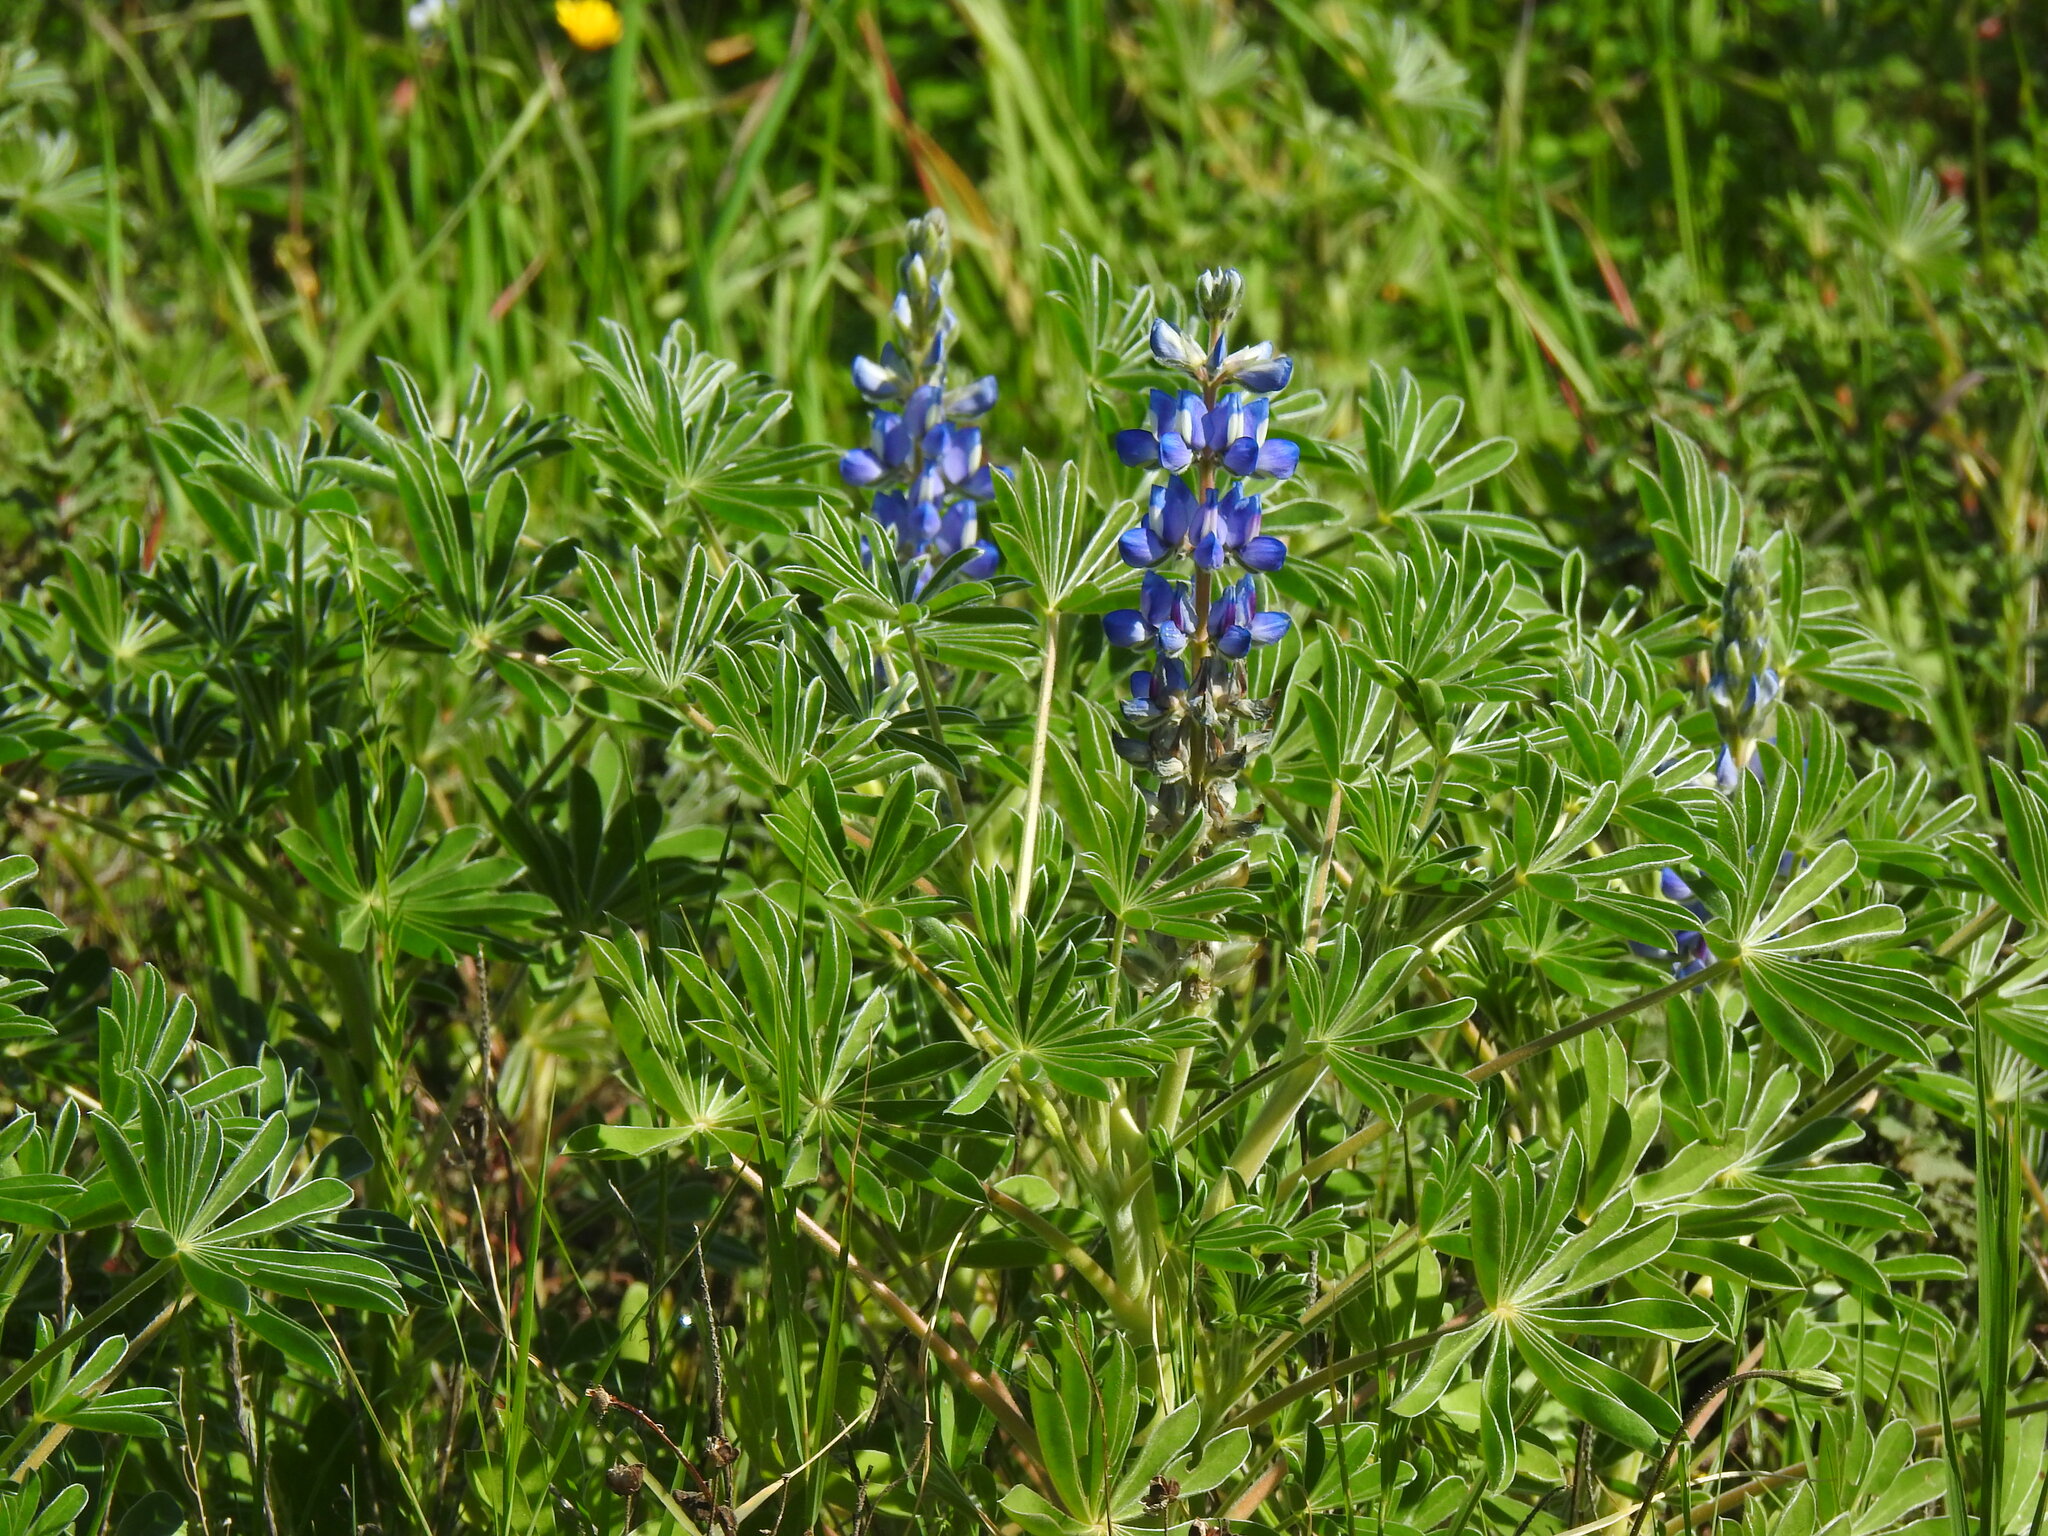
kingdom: Plantae
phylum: Tracheophyta
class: Magnoliopsida
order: Fabales
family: Fabaceae
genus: Lupinus
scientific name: Lupinus cosentinii
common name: Hairy blue lupin
